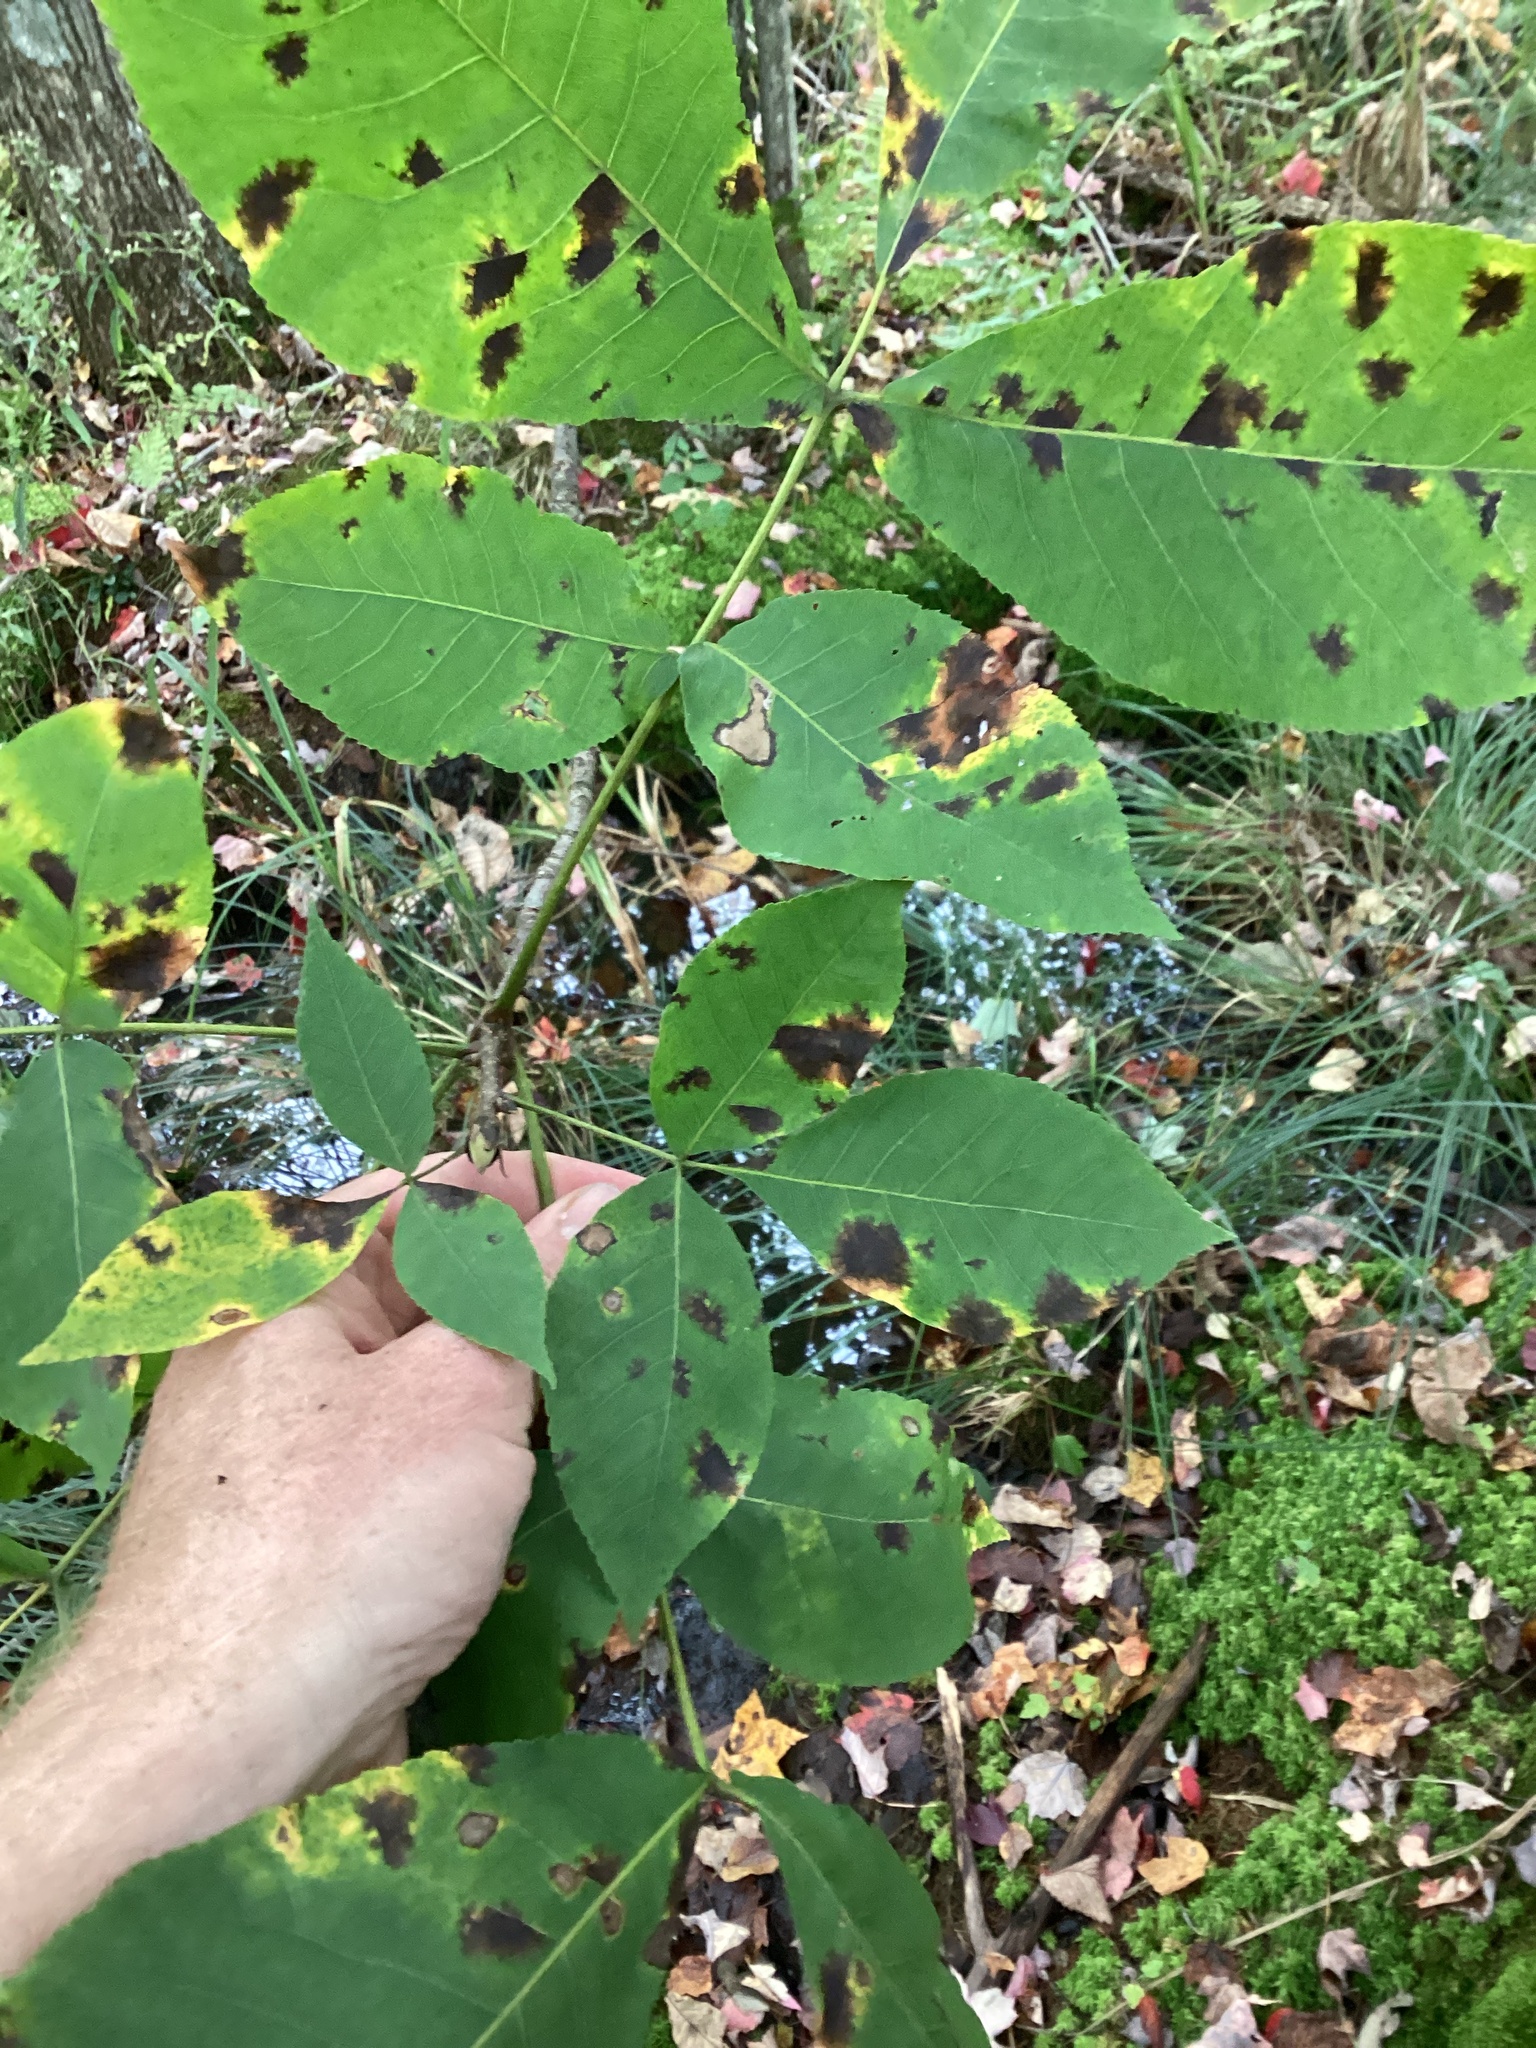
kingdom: Plantae
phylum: Tracheophyta
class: Magnoliopsida
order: Fagales
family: Juglandaceae
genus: Carya
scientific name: Carya ovata
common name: Shagbark hickory
